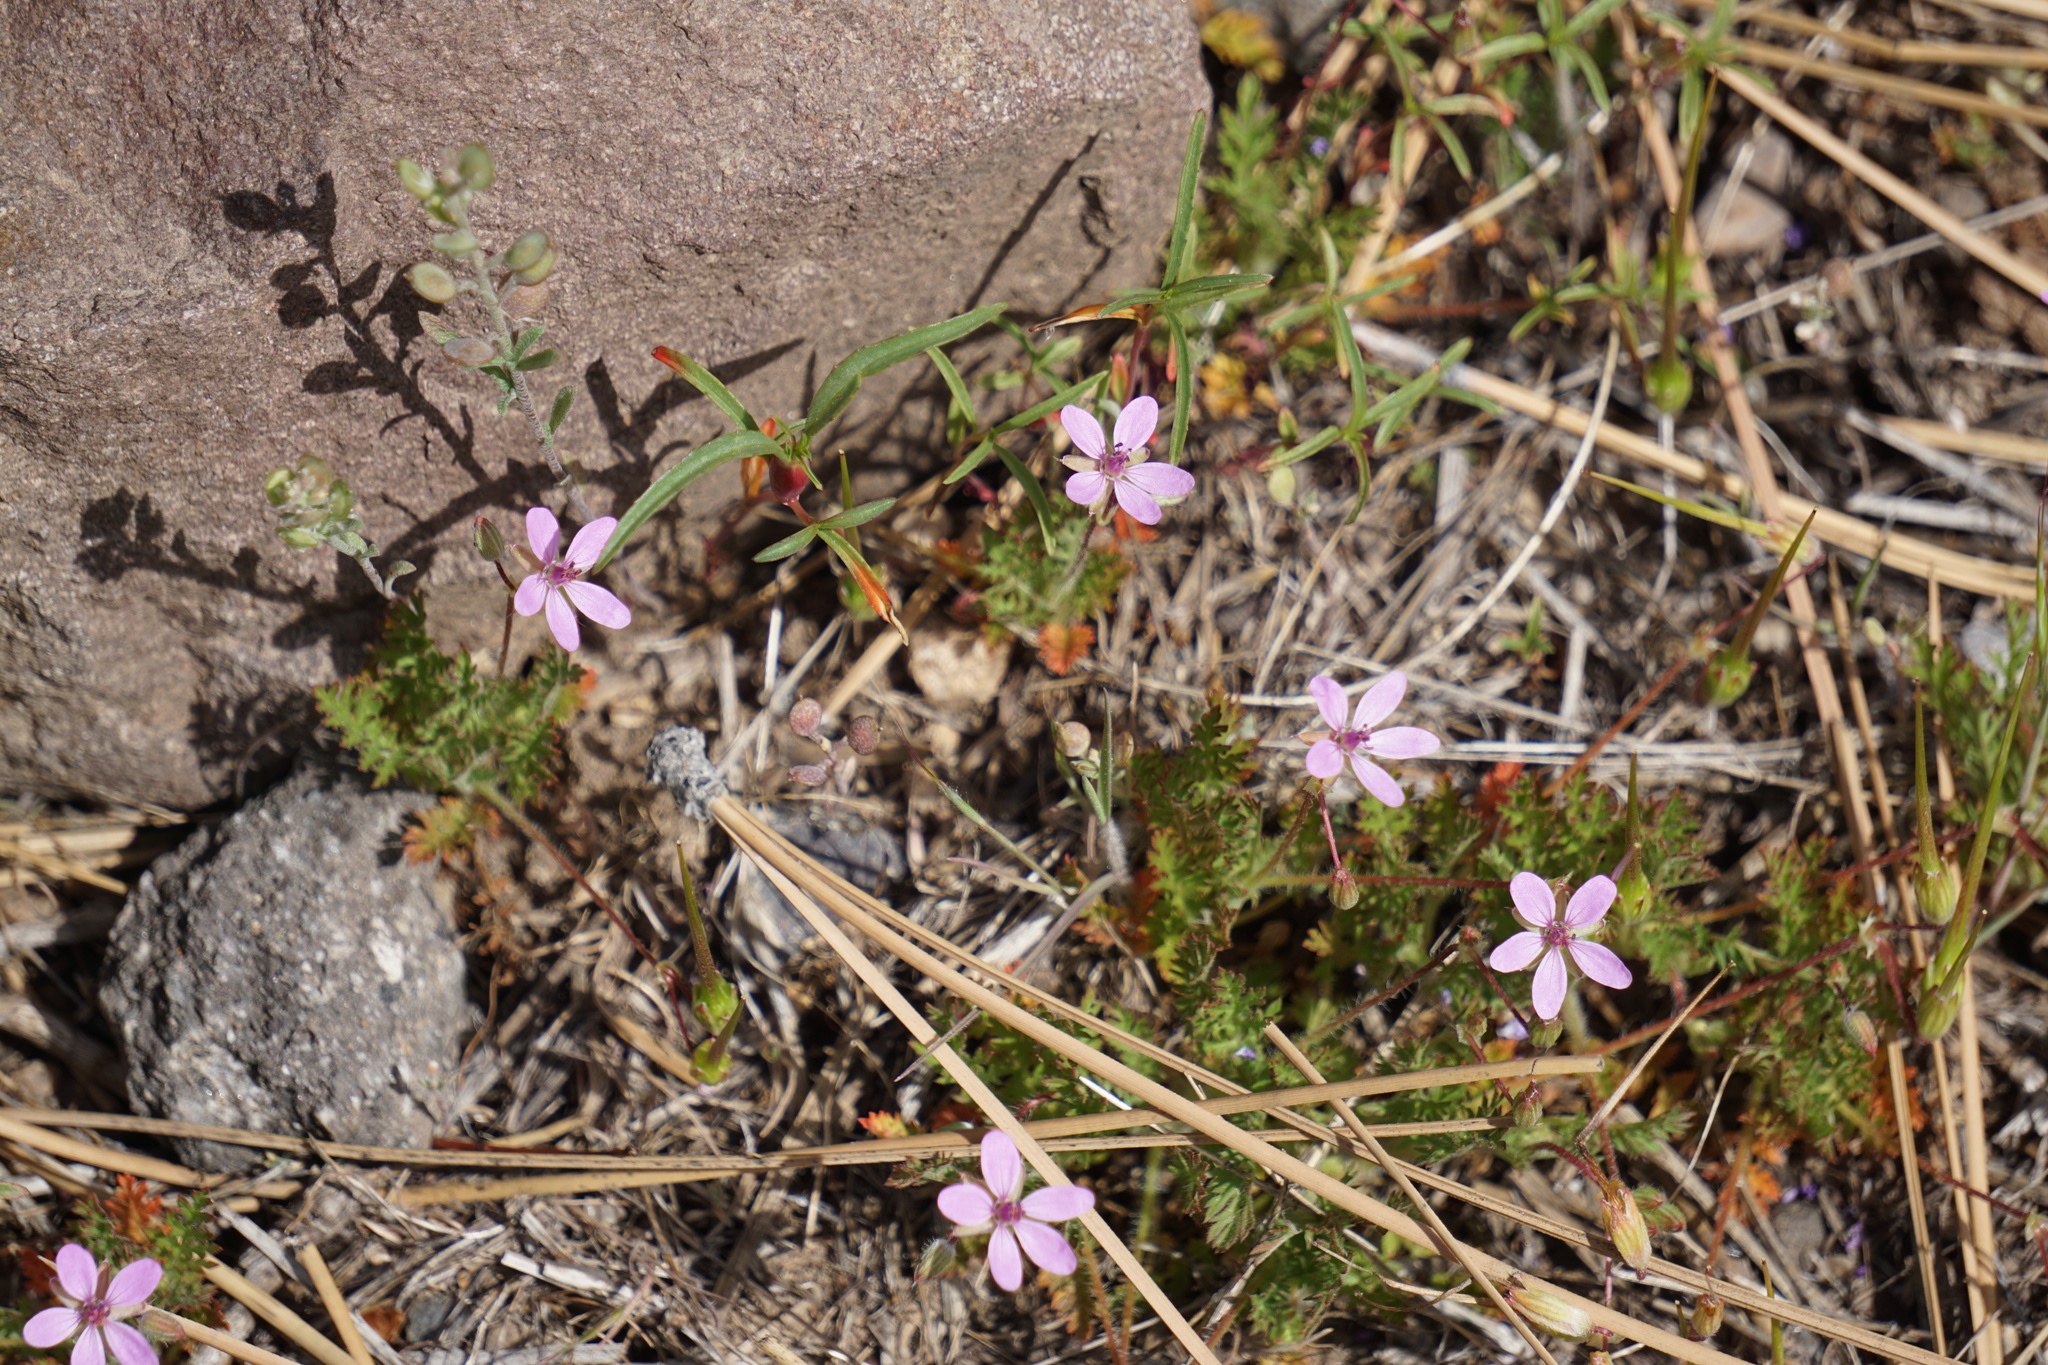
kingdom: Plantae
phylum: Tracheophyta
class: Magnoliopsida
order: Geraniales
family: Geraniaceae
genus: Erodium
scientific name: Erodium cicutarium
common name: Common stork's-bill
